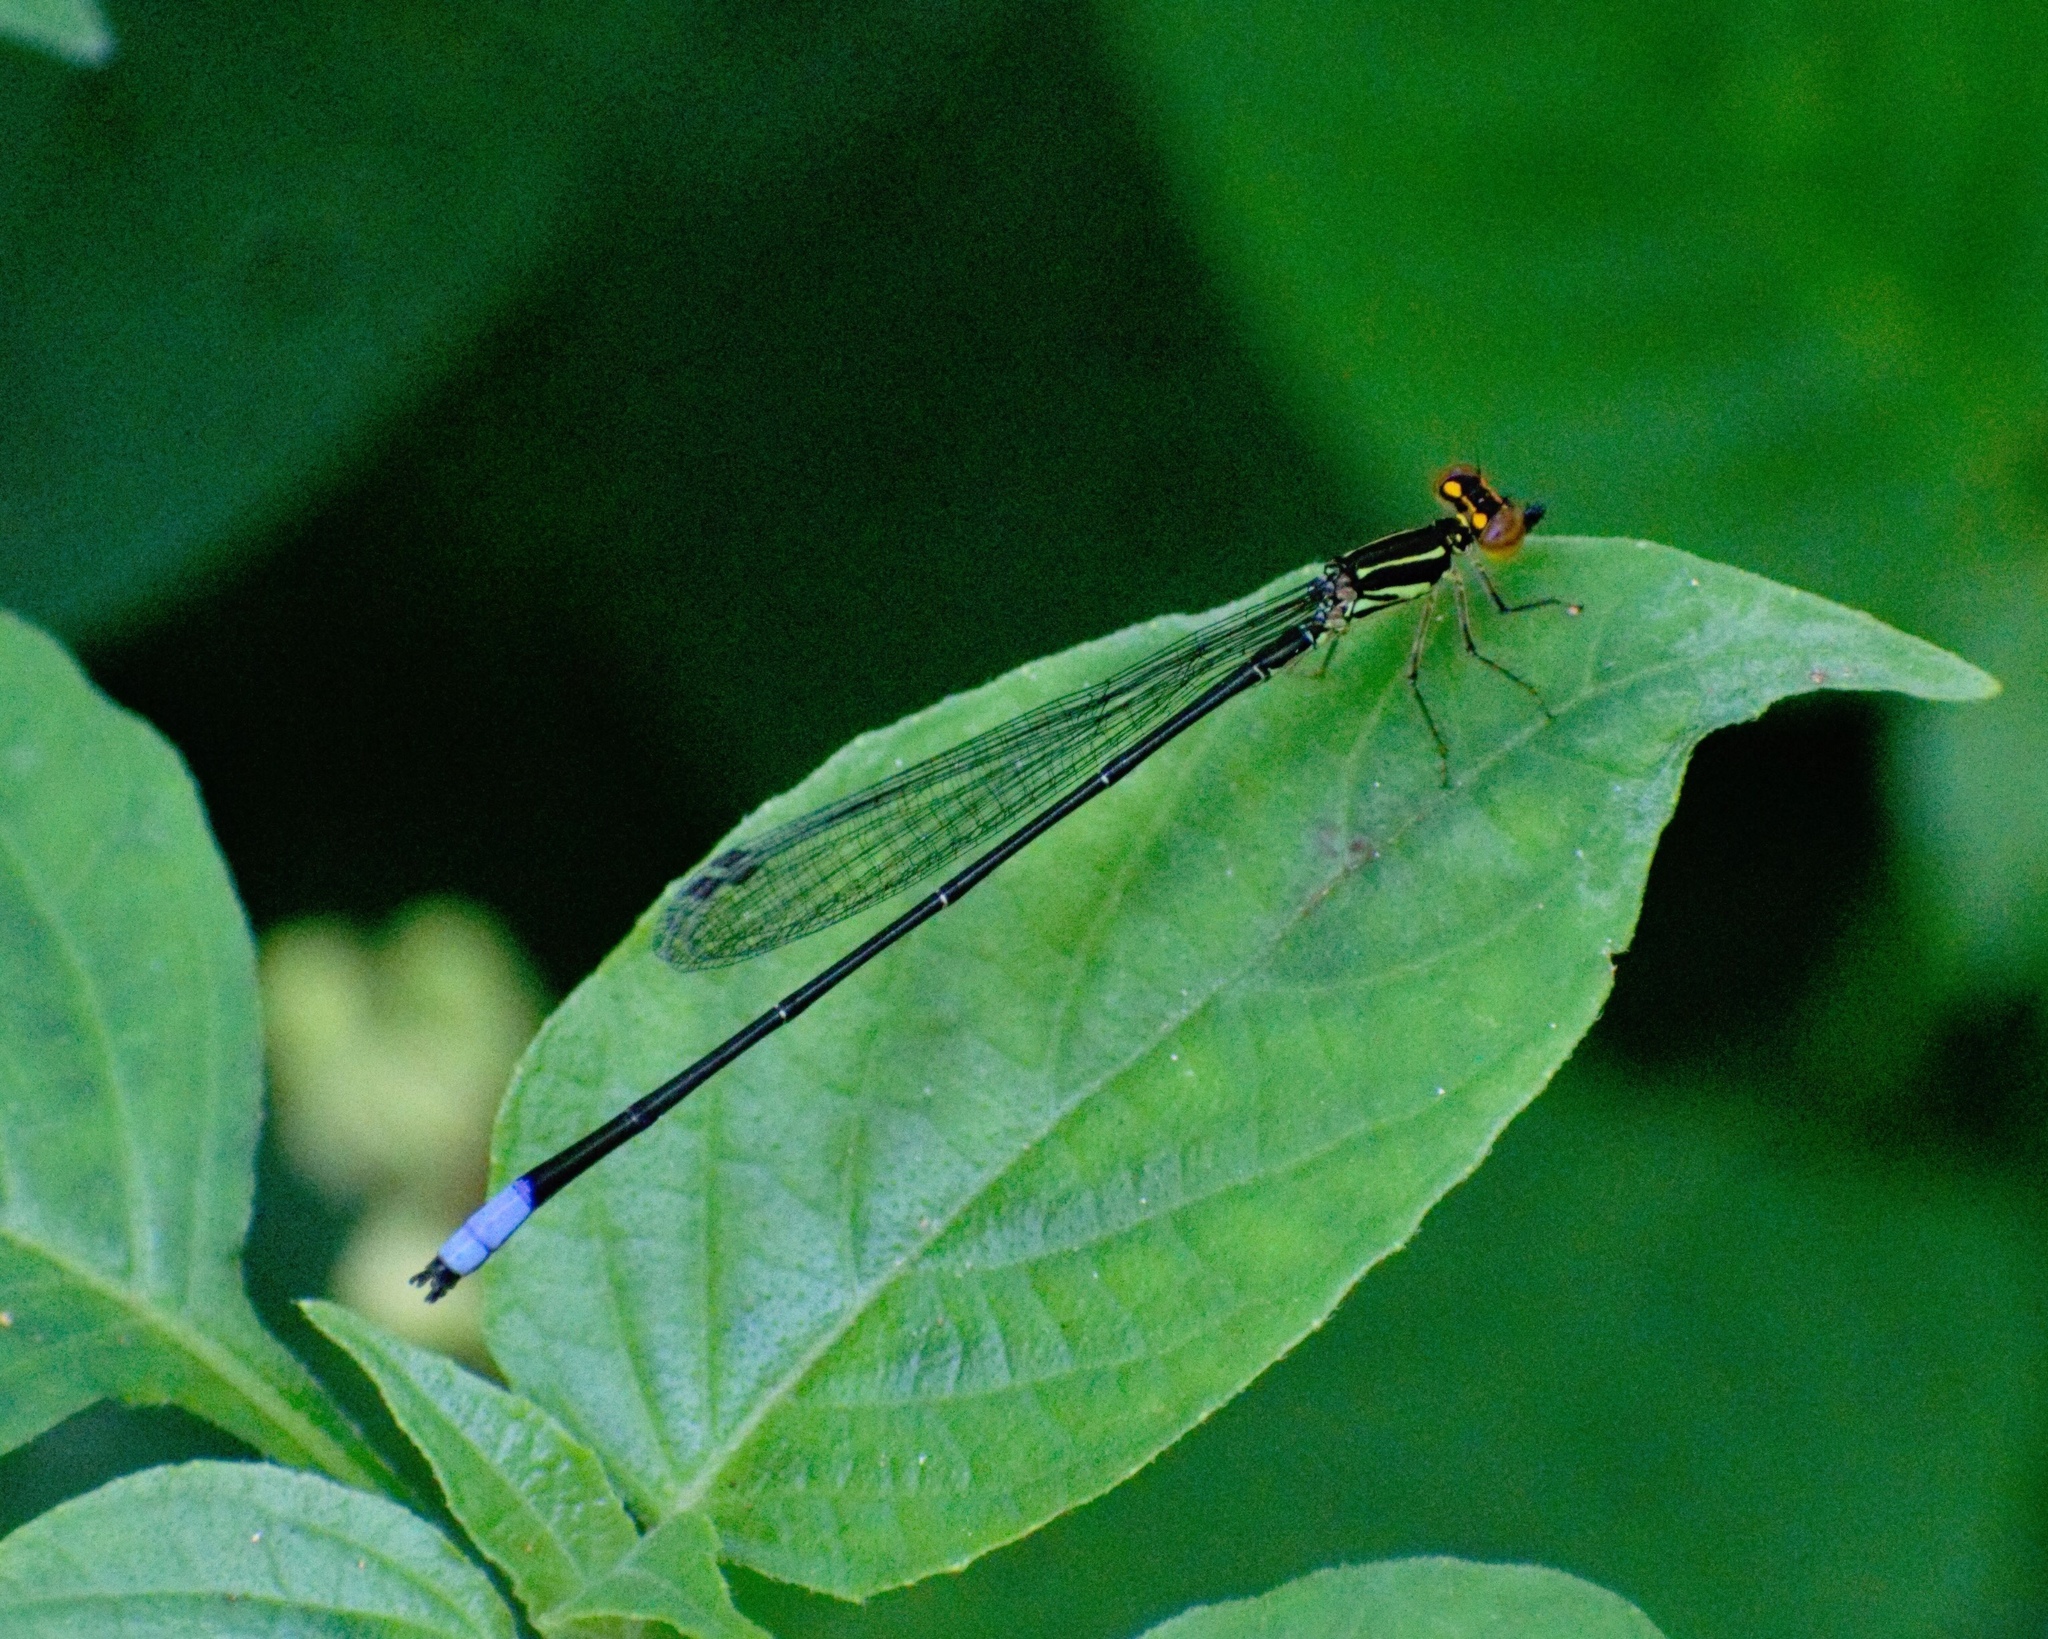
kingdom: Animalia
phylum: Arthropoda
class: Insecta
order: Odonata
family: Coenagrionidae
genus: Pseudagrion
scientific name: Pseudagrion hageni
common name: Painted sprite
